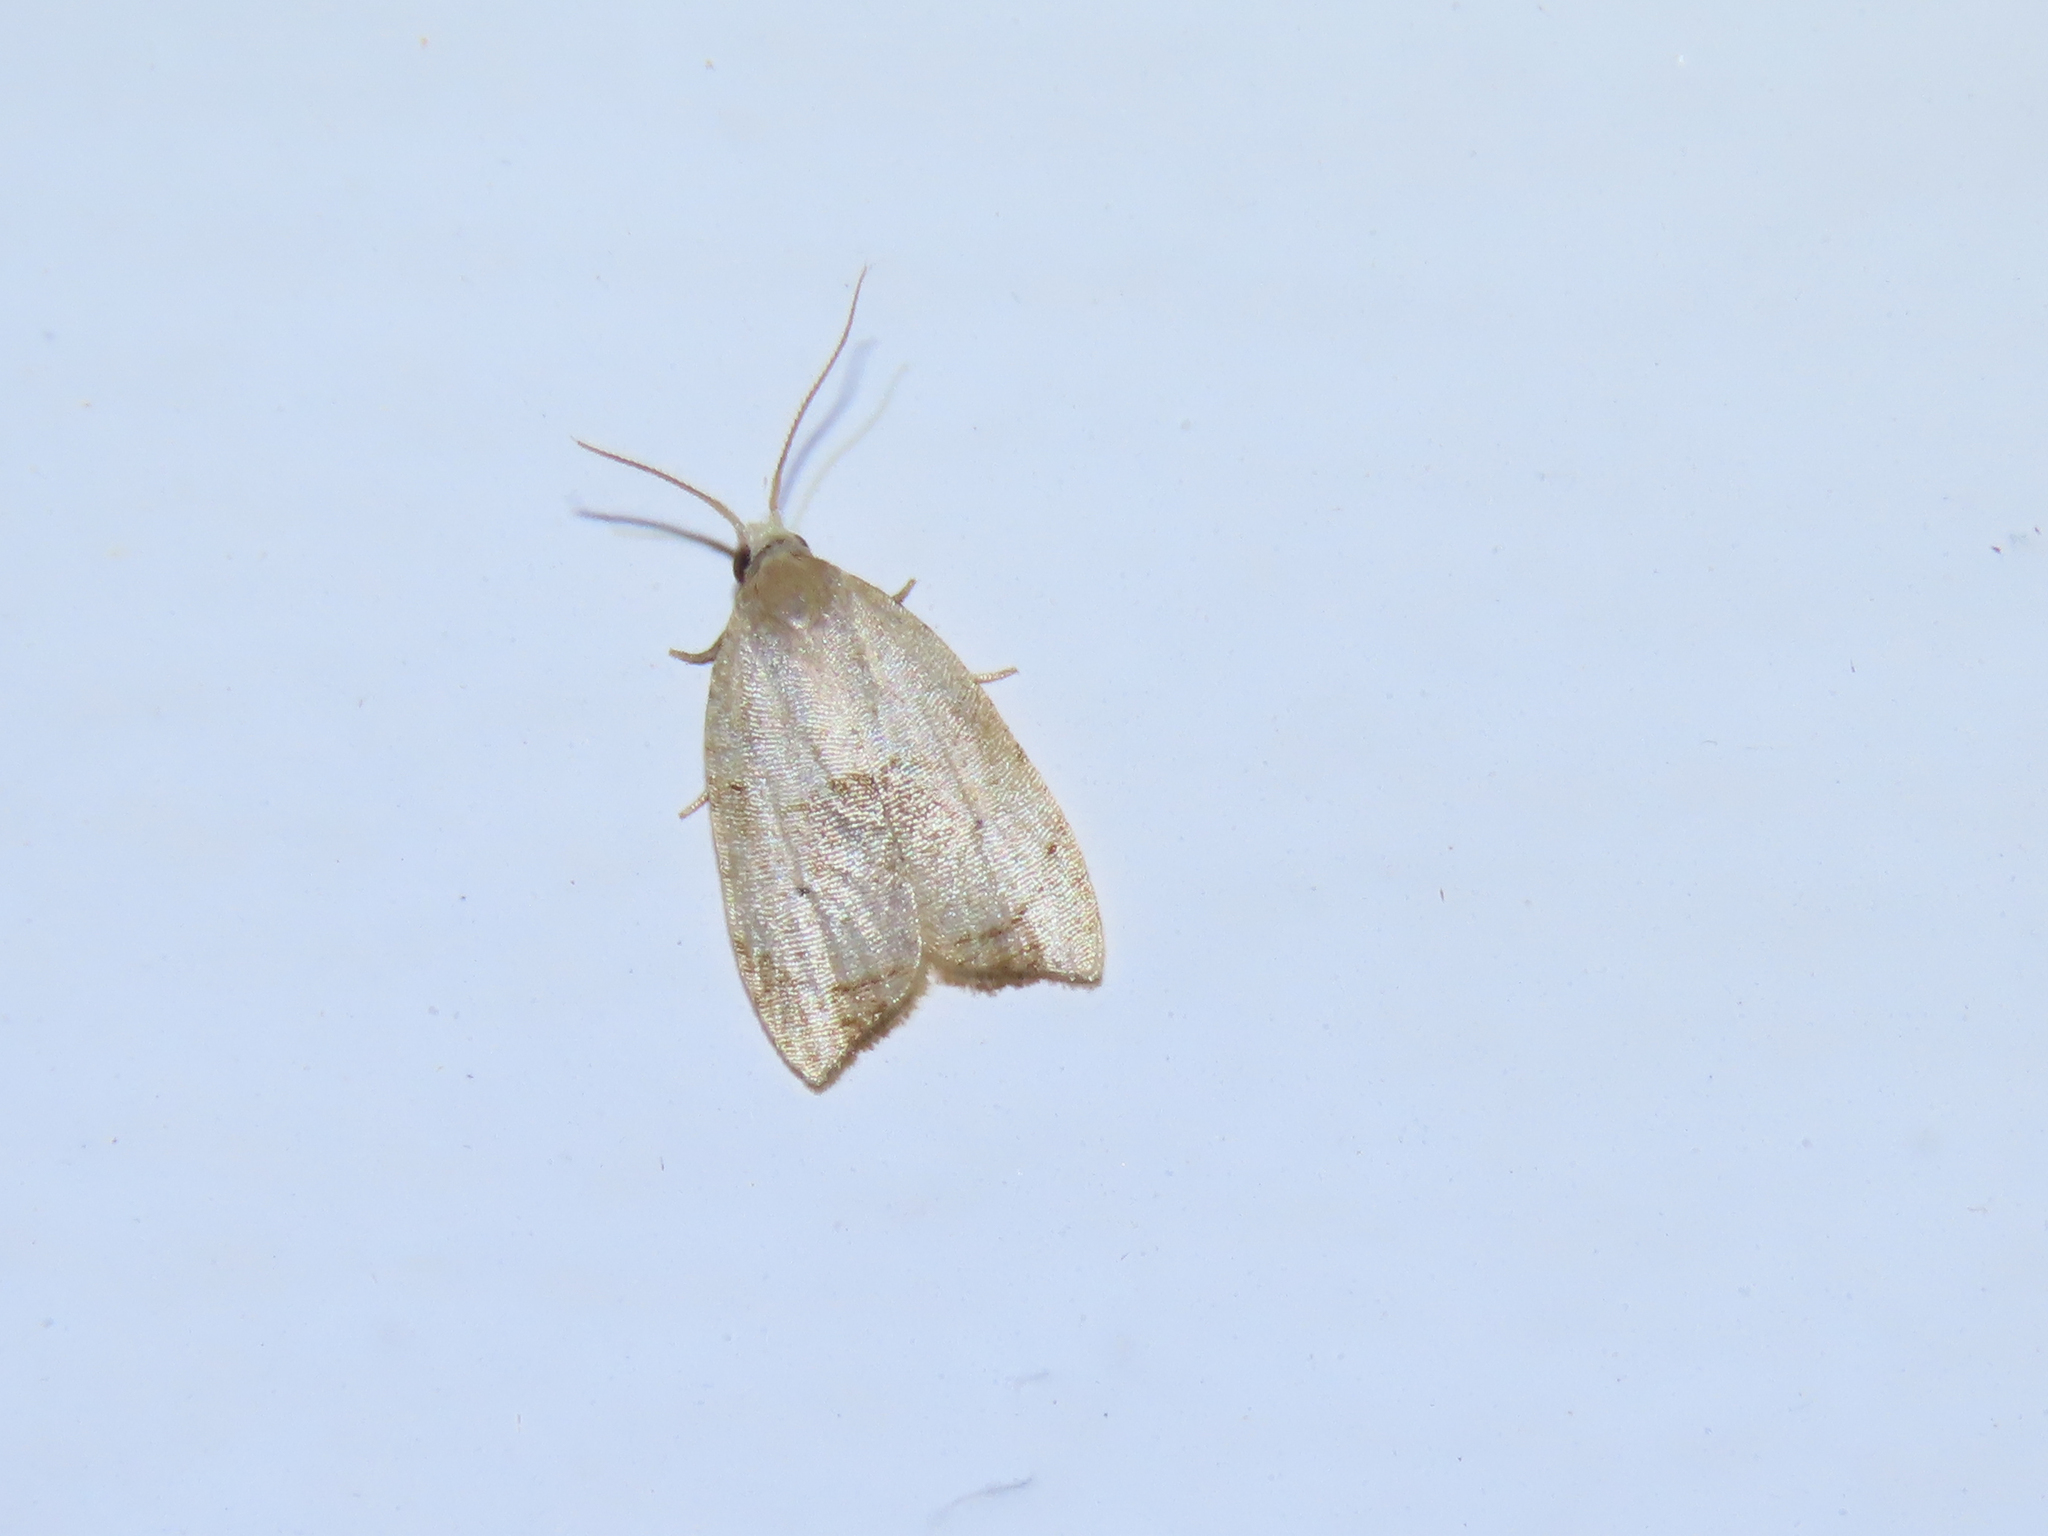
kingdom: Animalia
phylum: Arthropoda
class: Insecta
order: Lepidoptera
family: Tortricidae
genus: Coelostathma
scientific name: Coelostathma discopunctana
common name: Batman moth
